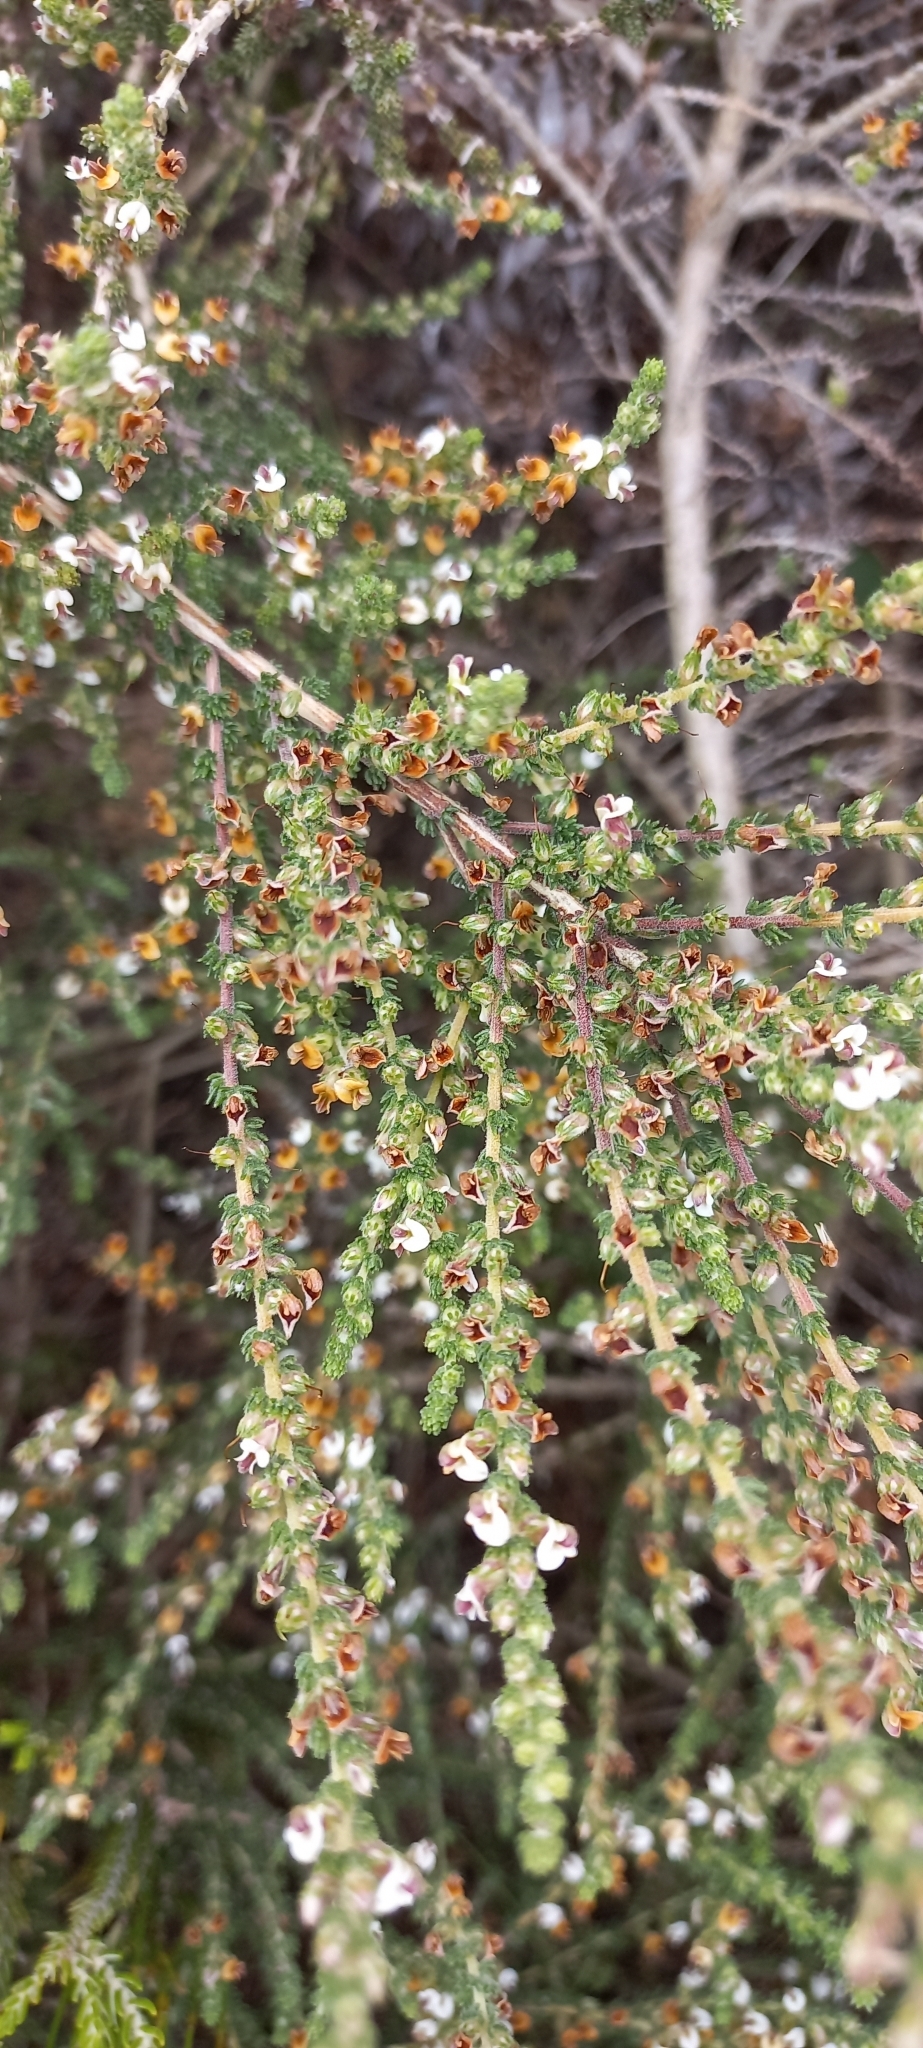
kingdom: Plantae
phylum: Tracheophyta
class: Magnoliopsida
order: Fabales
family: Fabaceae
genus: Aspalathus
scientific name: Aspalathus hispida
